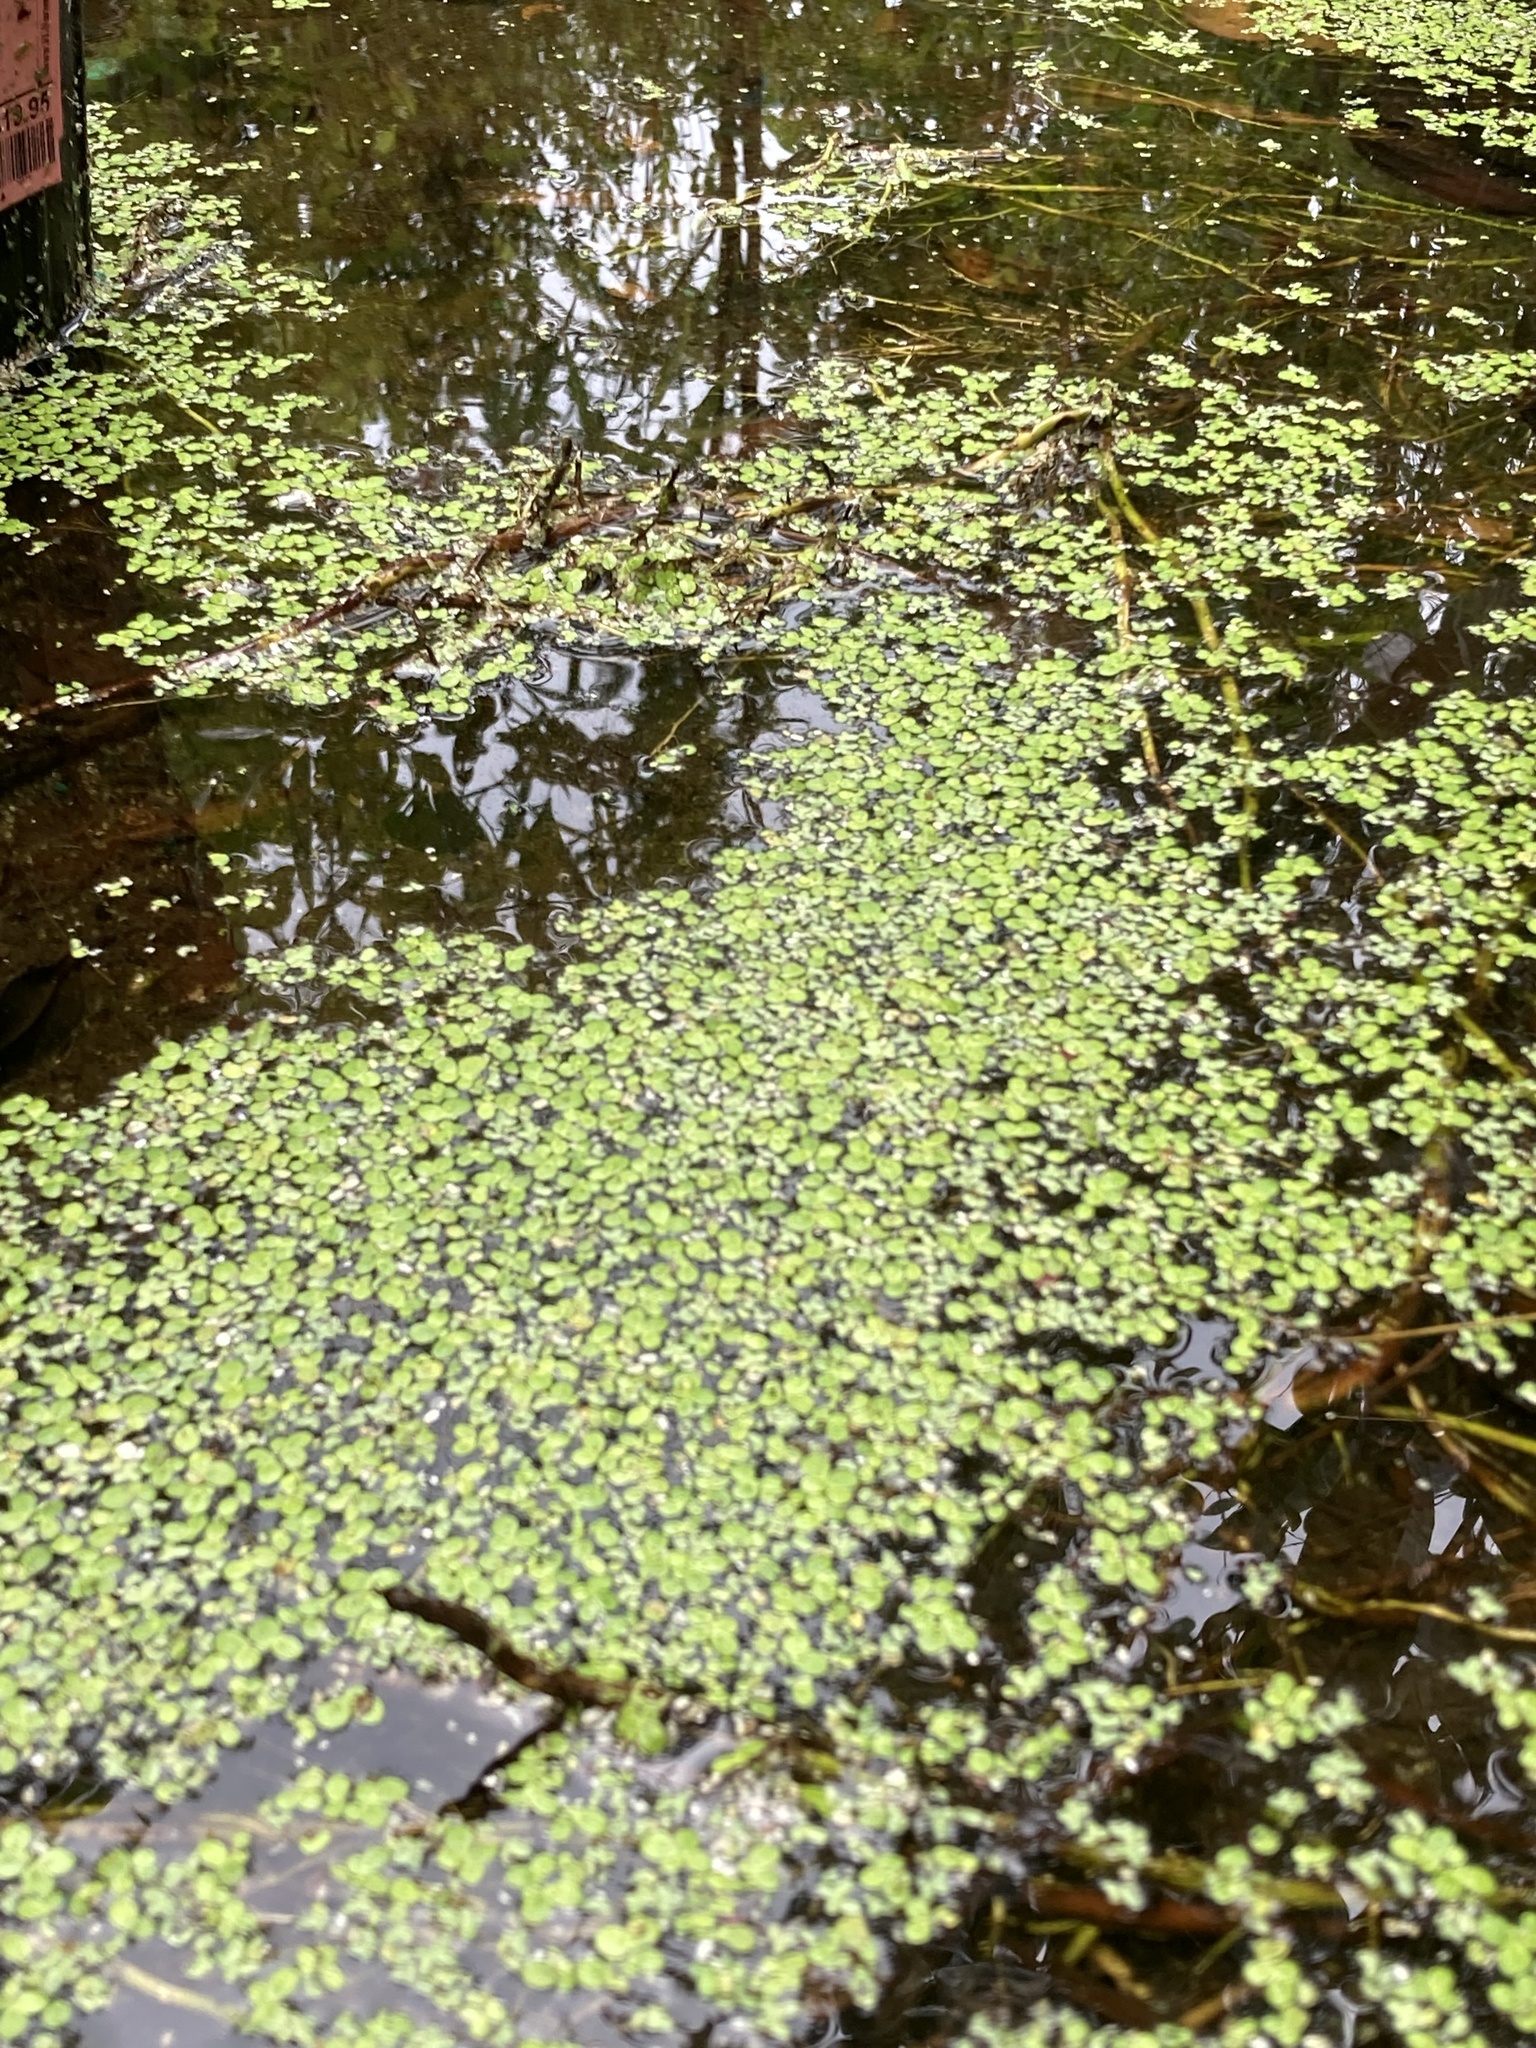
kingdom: Plantae
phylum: Tracheophyta
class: Liliopsida
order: Alismatales
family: Araceae
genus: Spirodela
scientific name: Spirodela polyrhiza
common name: Great duckweed
